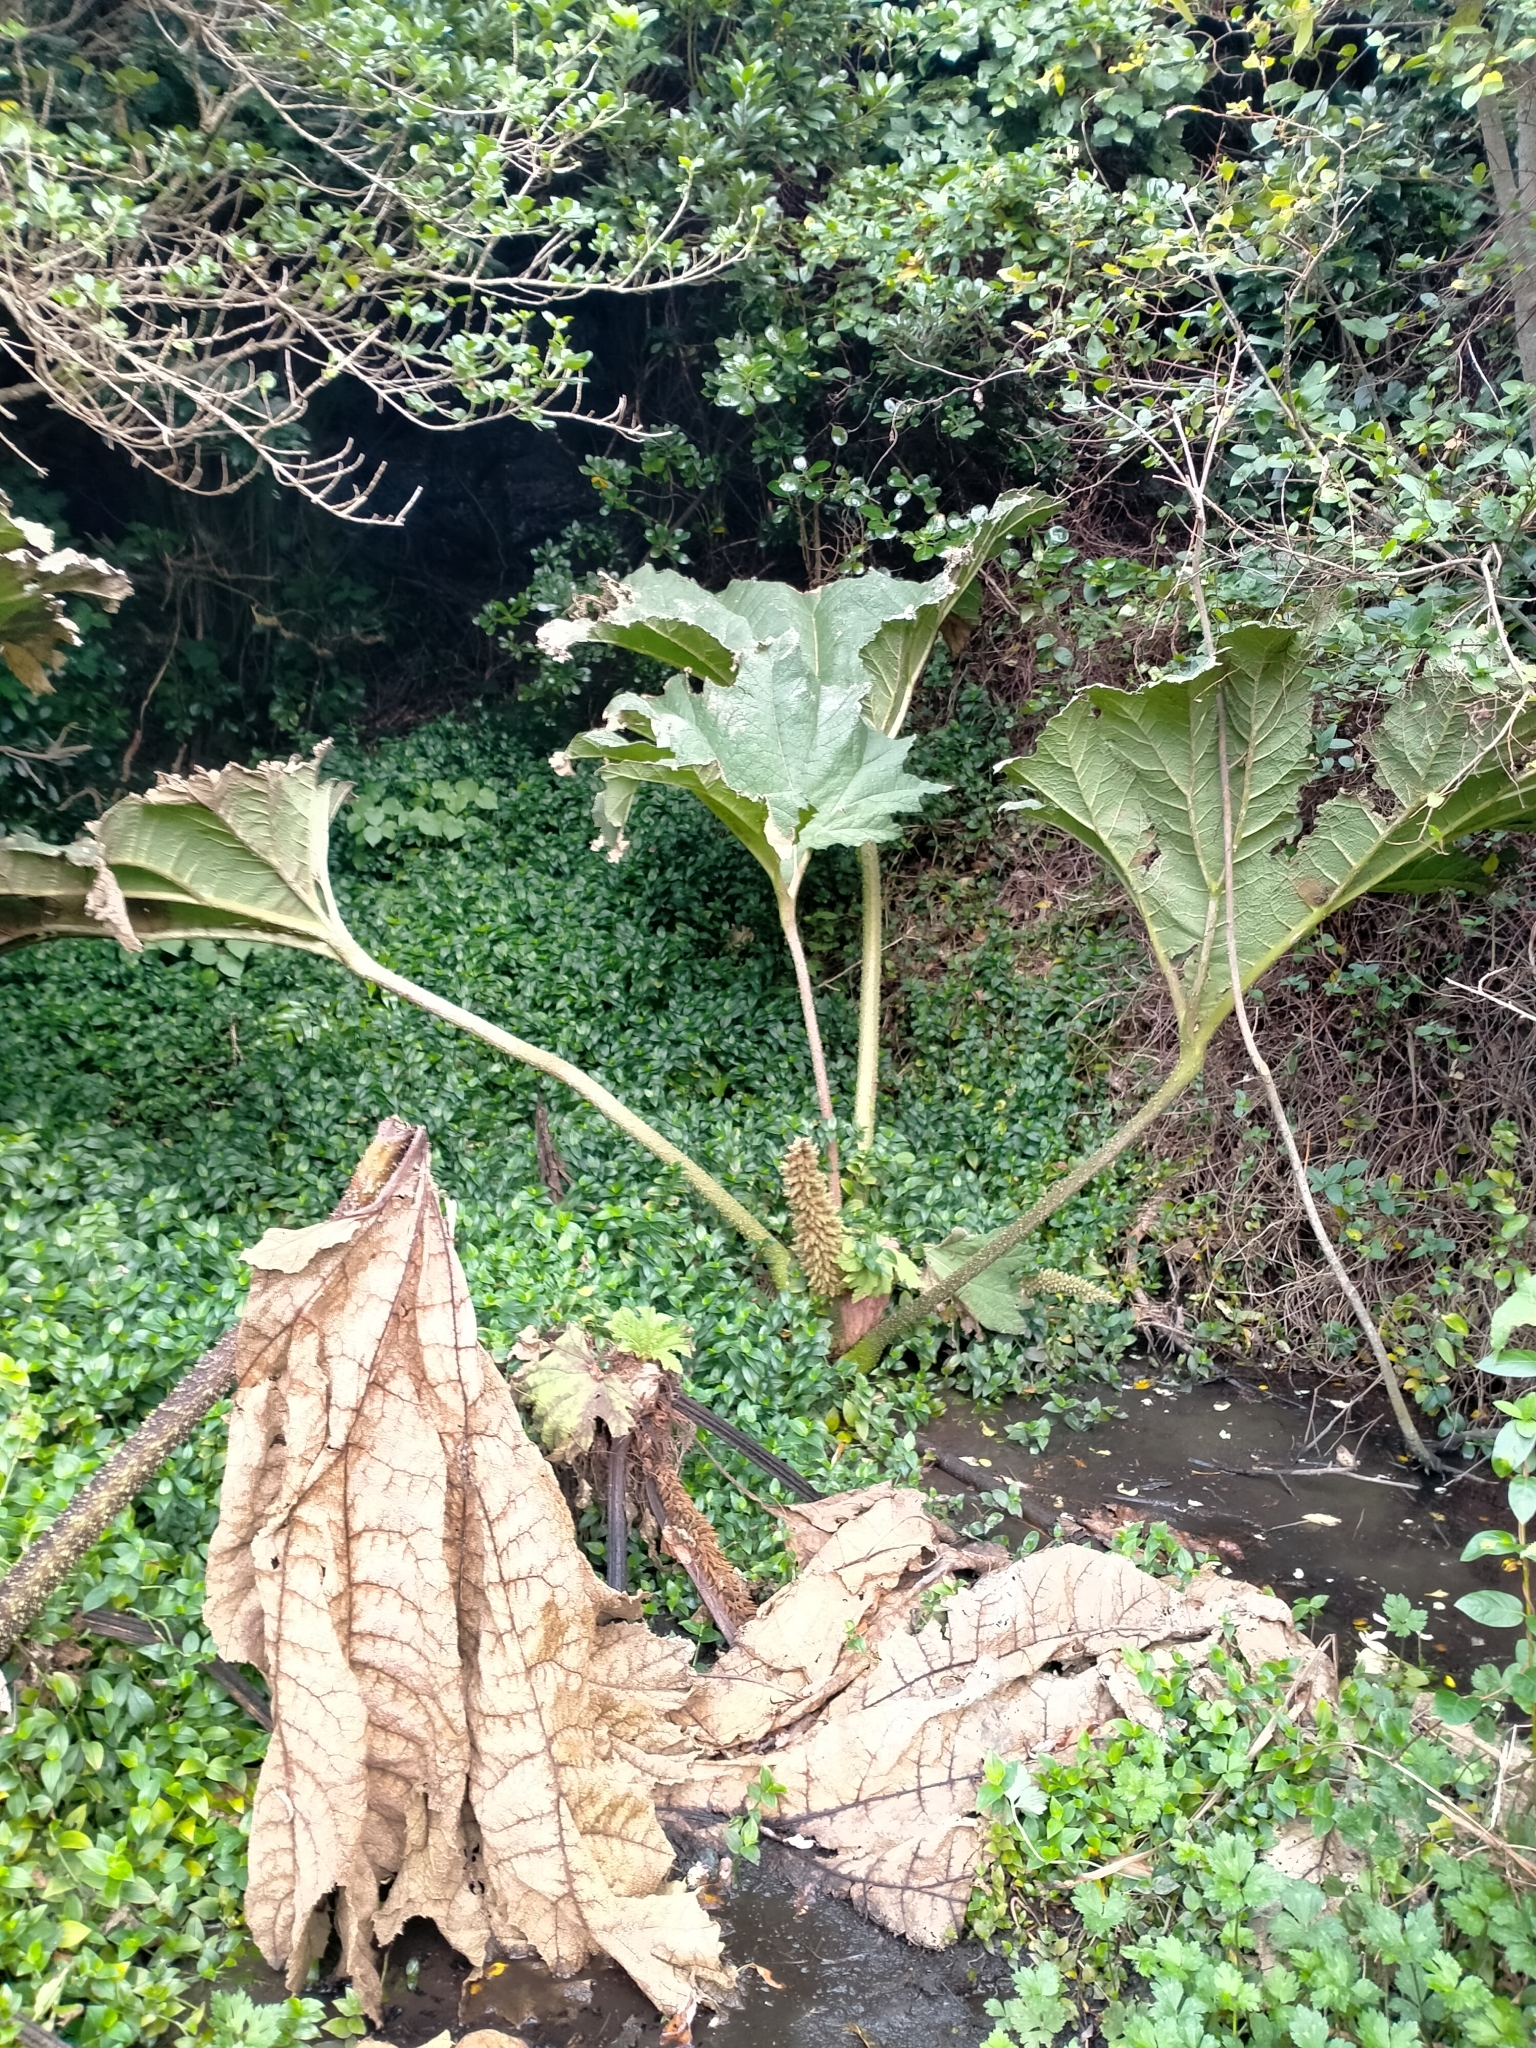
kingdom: Plantae
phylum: Tracheophyta
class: Magnoliopsida
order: Gunnerales
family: Gunneraceae
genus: Gunnera
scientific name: Gunnera tinctoria
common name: Giant-rhubarb
